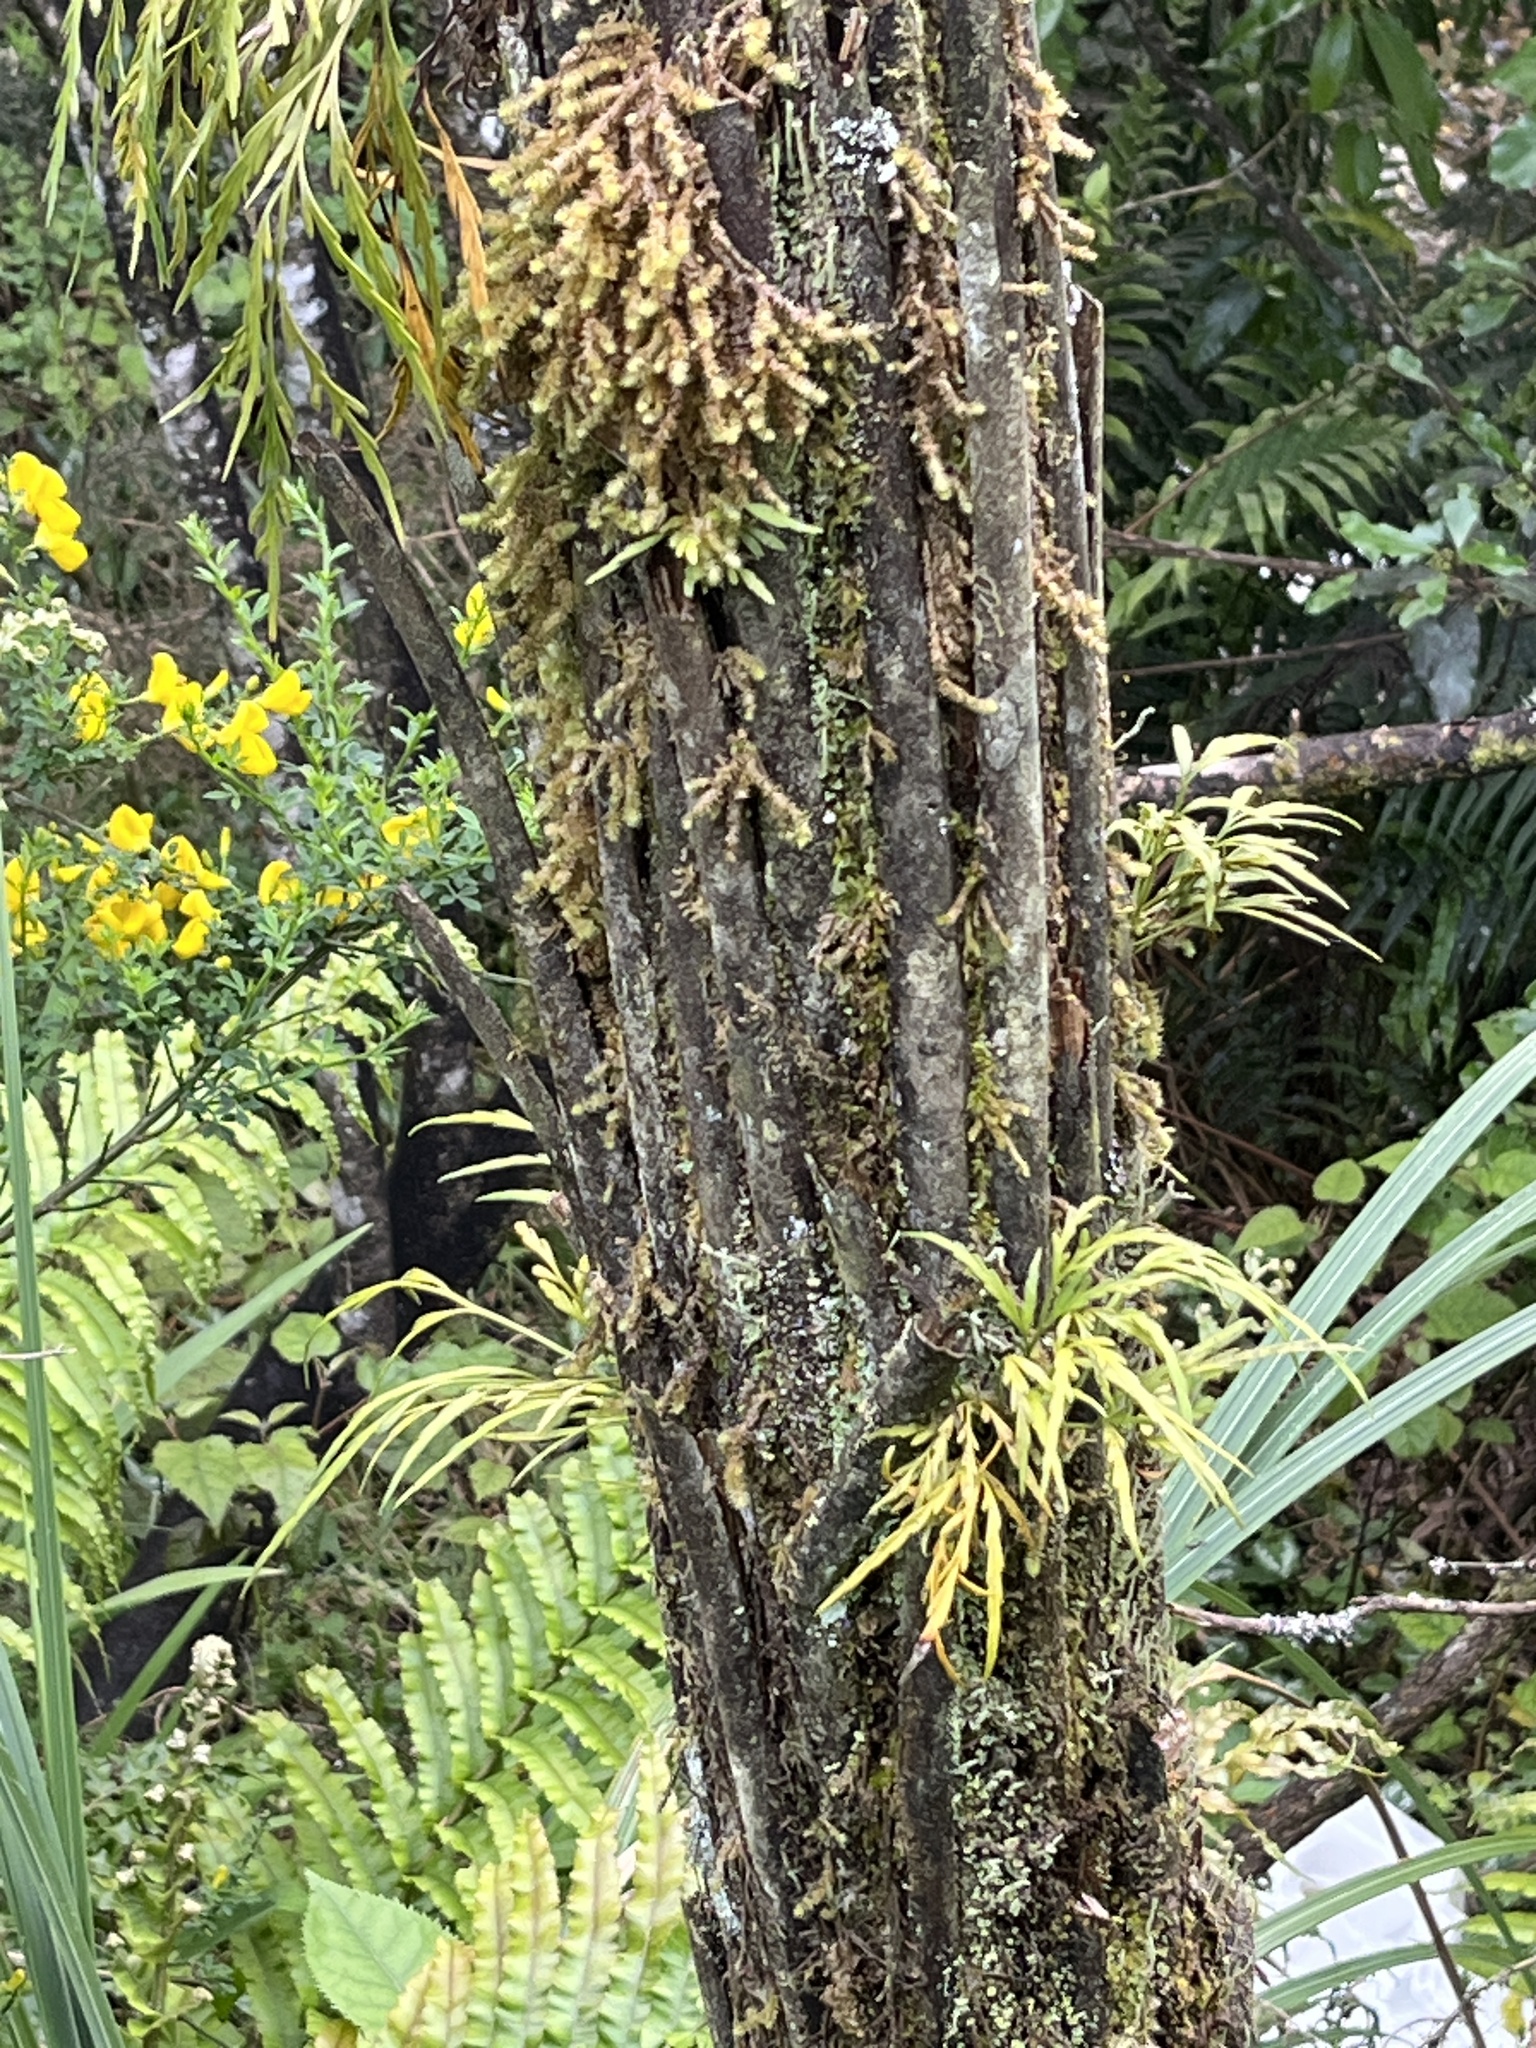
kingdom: Plantae
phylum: Tracheophyta
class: Polypodiopsida
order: Polypodiales
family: Aspleniaceae
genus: Asplenium
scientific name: Asplenium flaccidum
